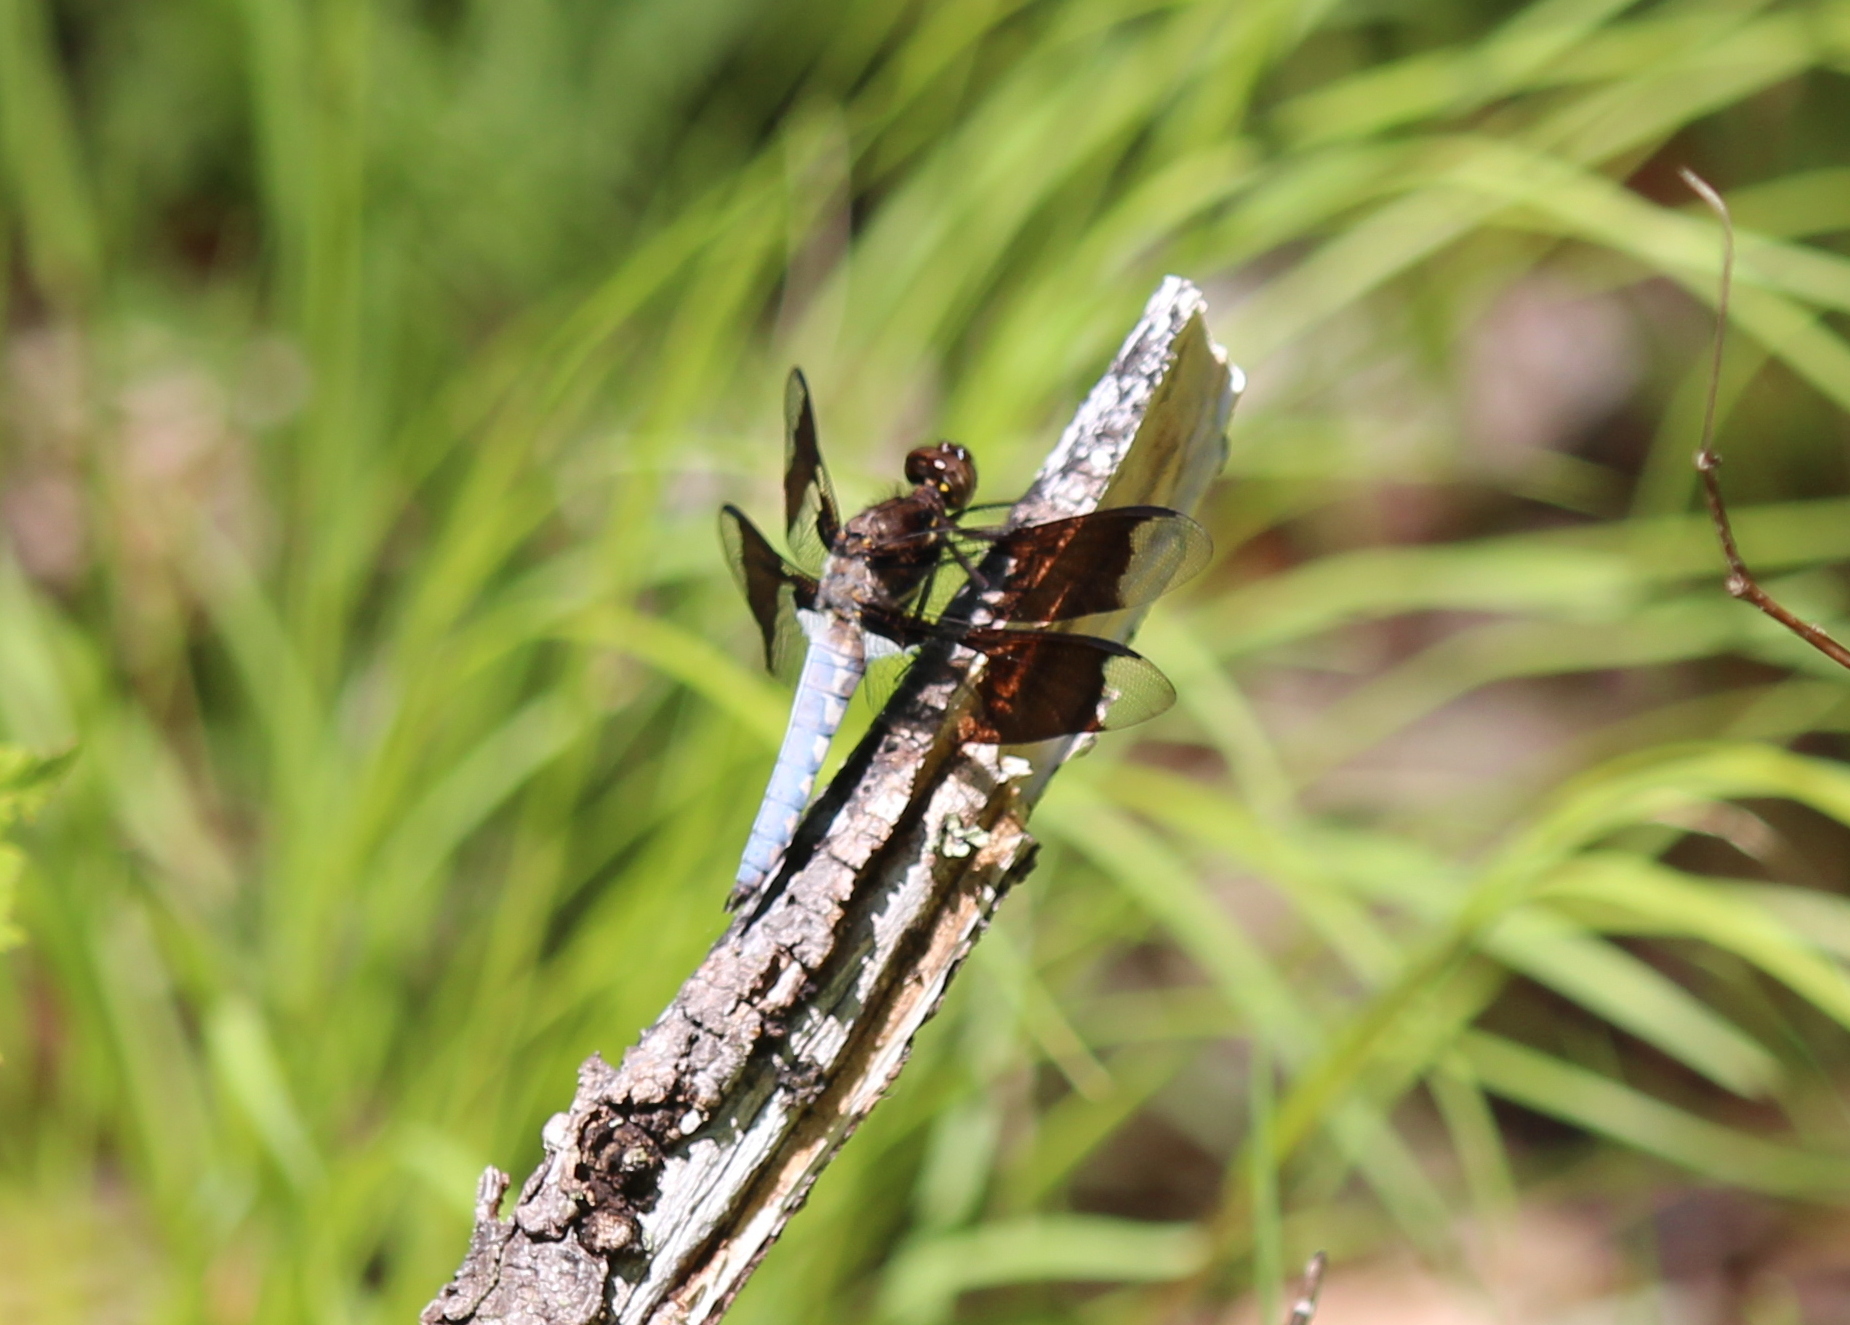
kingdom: Animalia
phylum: Arthropoda
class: Insecta
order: Odonata
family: Libellulidae
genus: Plathemis
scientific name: Plathemis lydia
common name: Common whitetail
